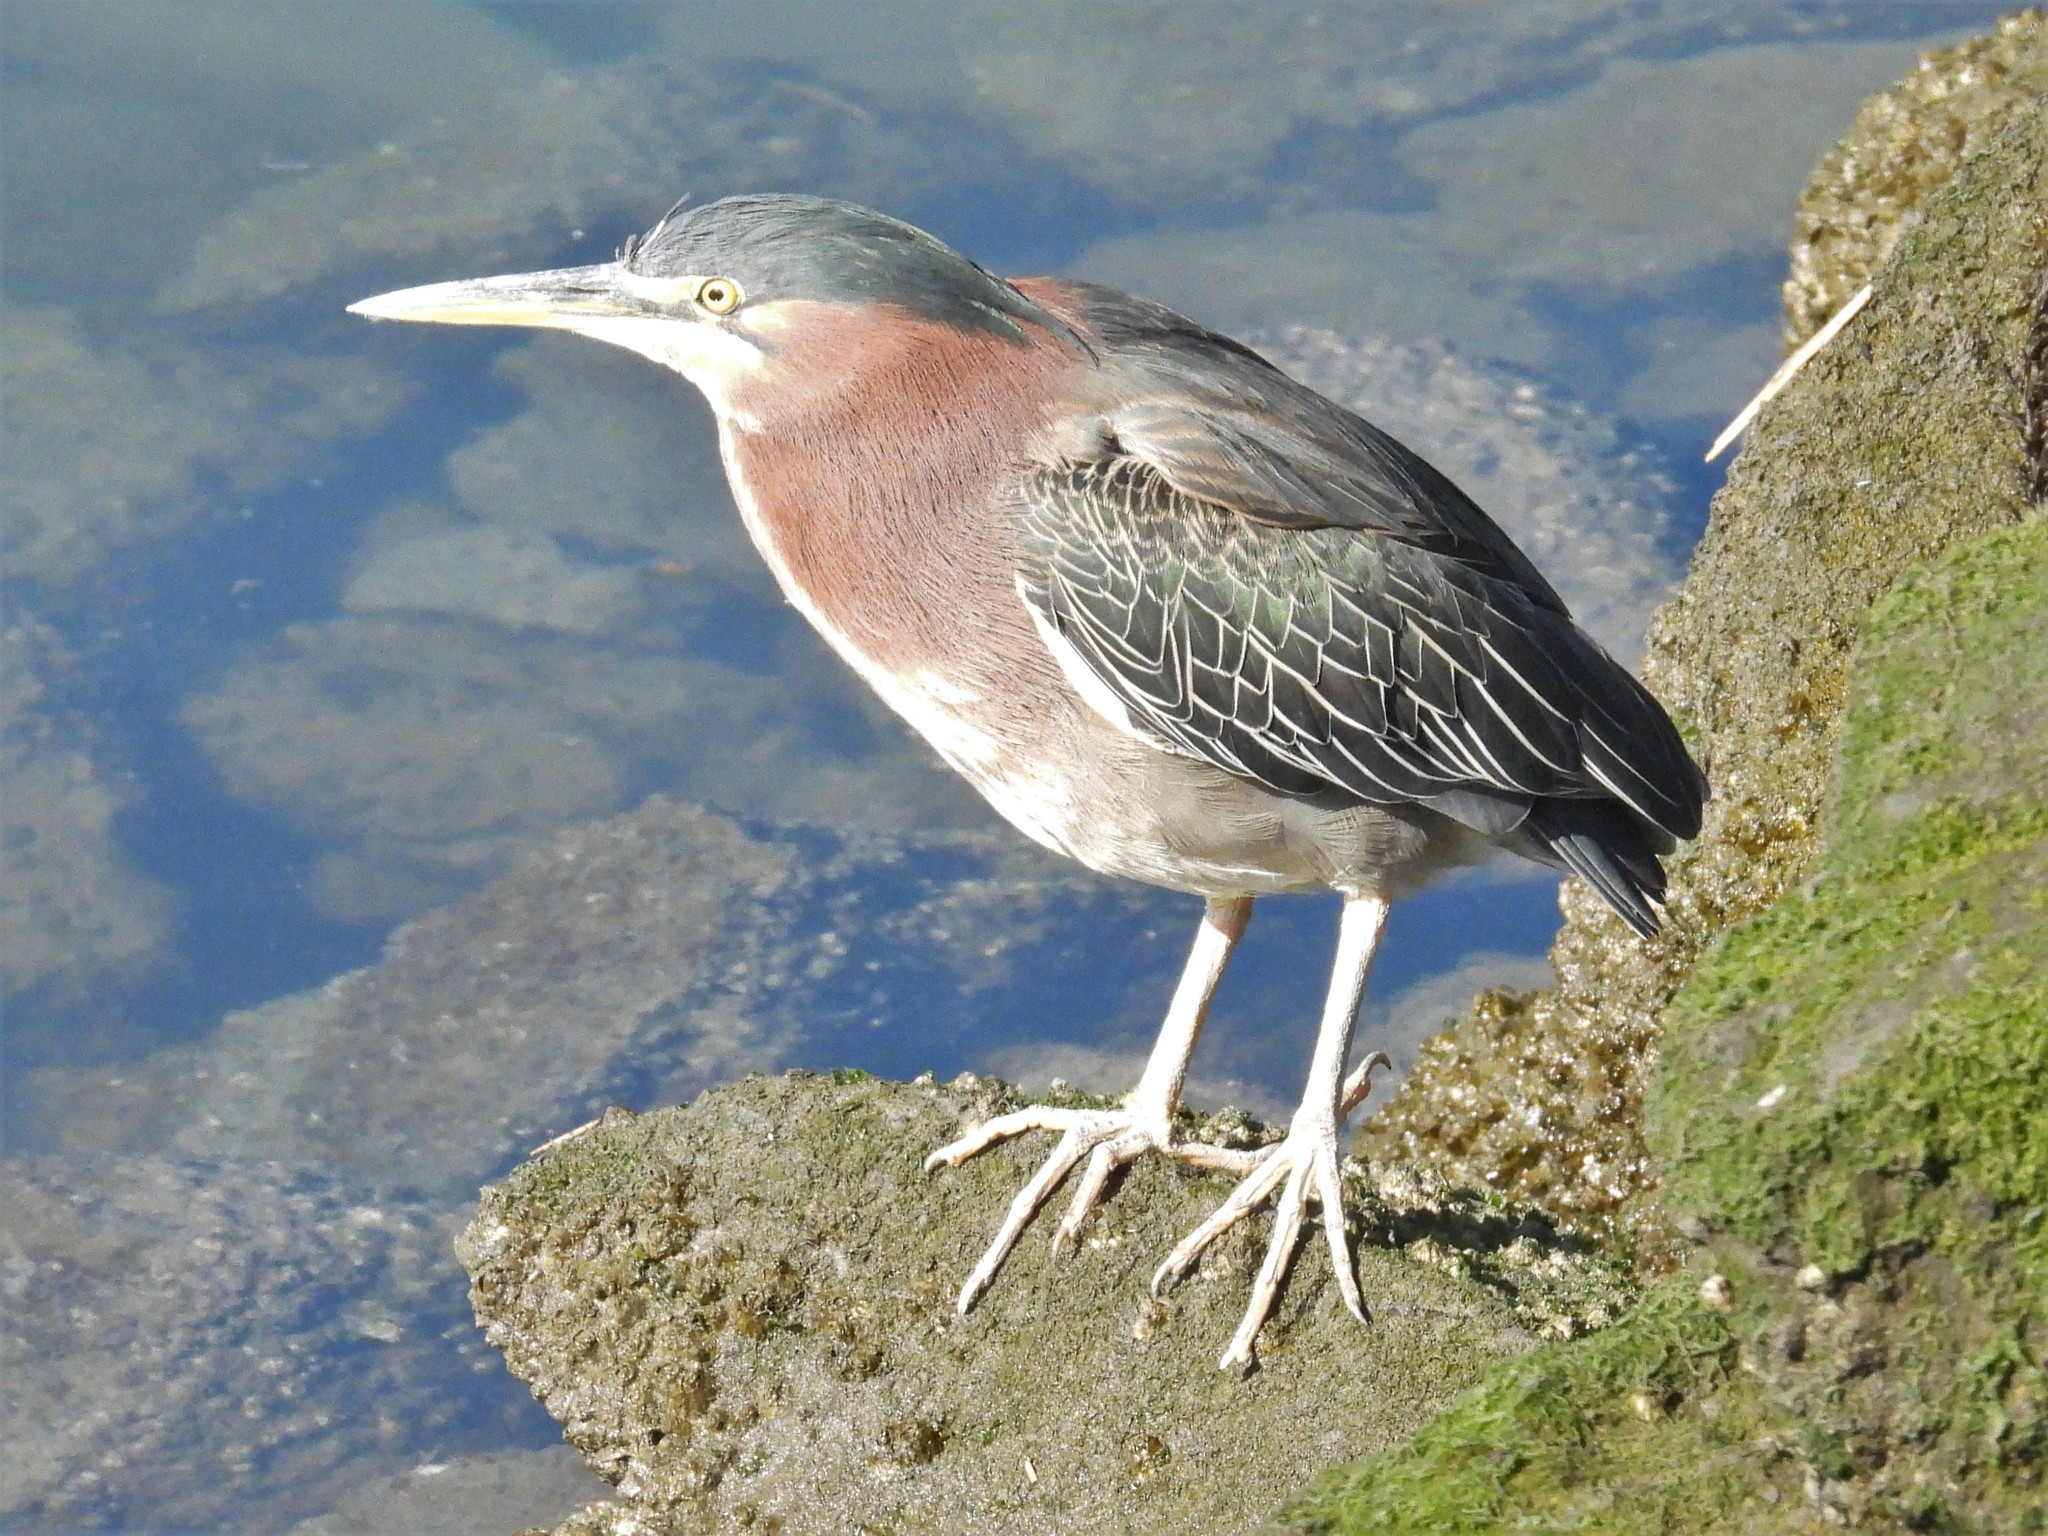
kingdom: Animalia
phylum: Chordata
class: Aves
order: Pelecaniformes
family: Ardeidae
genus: Butorides
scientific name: Butorides virescens
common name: Green heron
